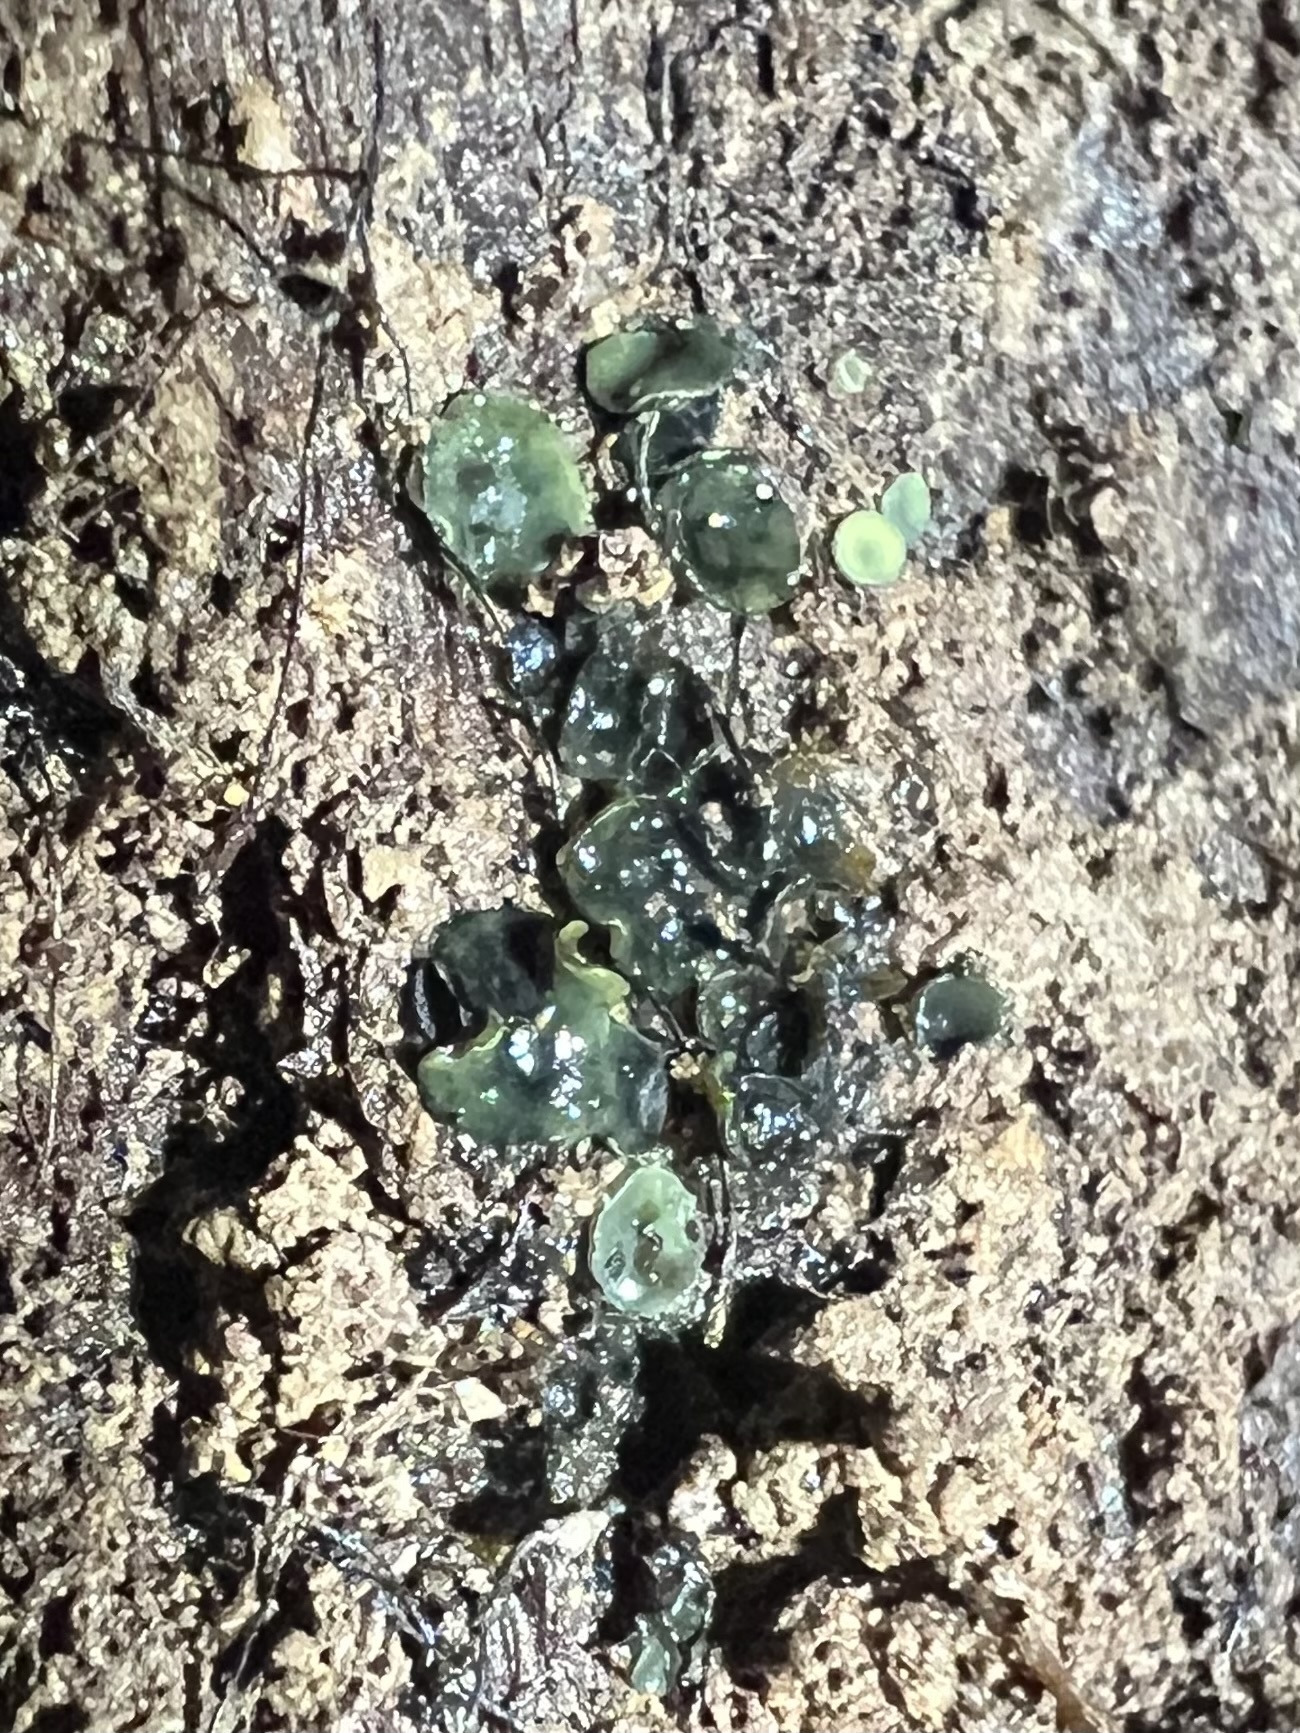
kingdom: Fungi
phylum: Ascomycota
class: Leotiomycetes
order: Helotiales
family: Chlorospleniaceae
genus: Chlorosplenium
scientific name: Chlorosplenium chlora
